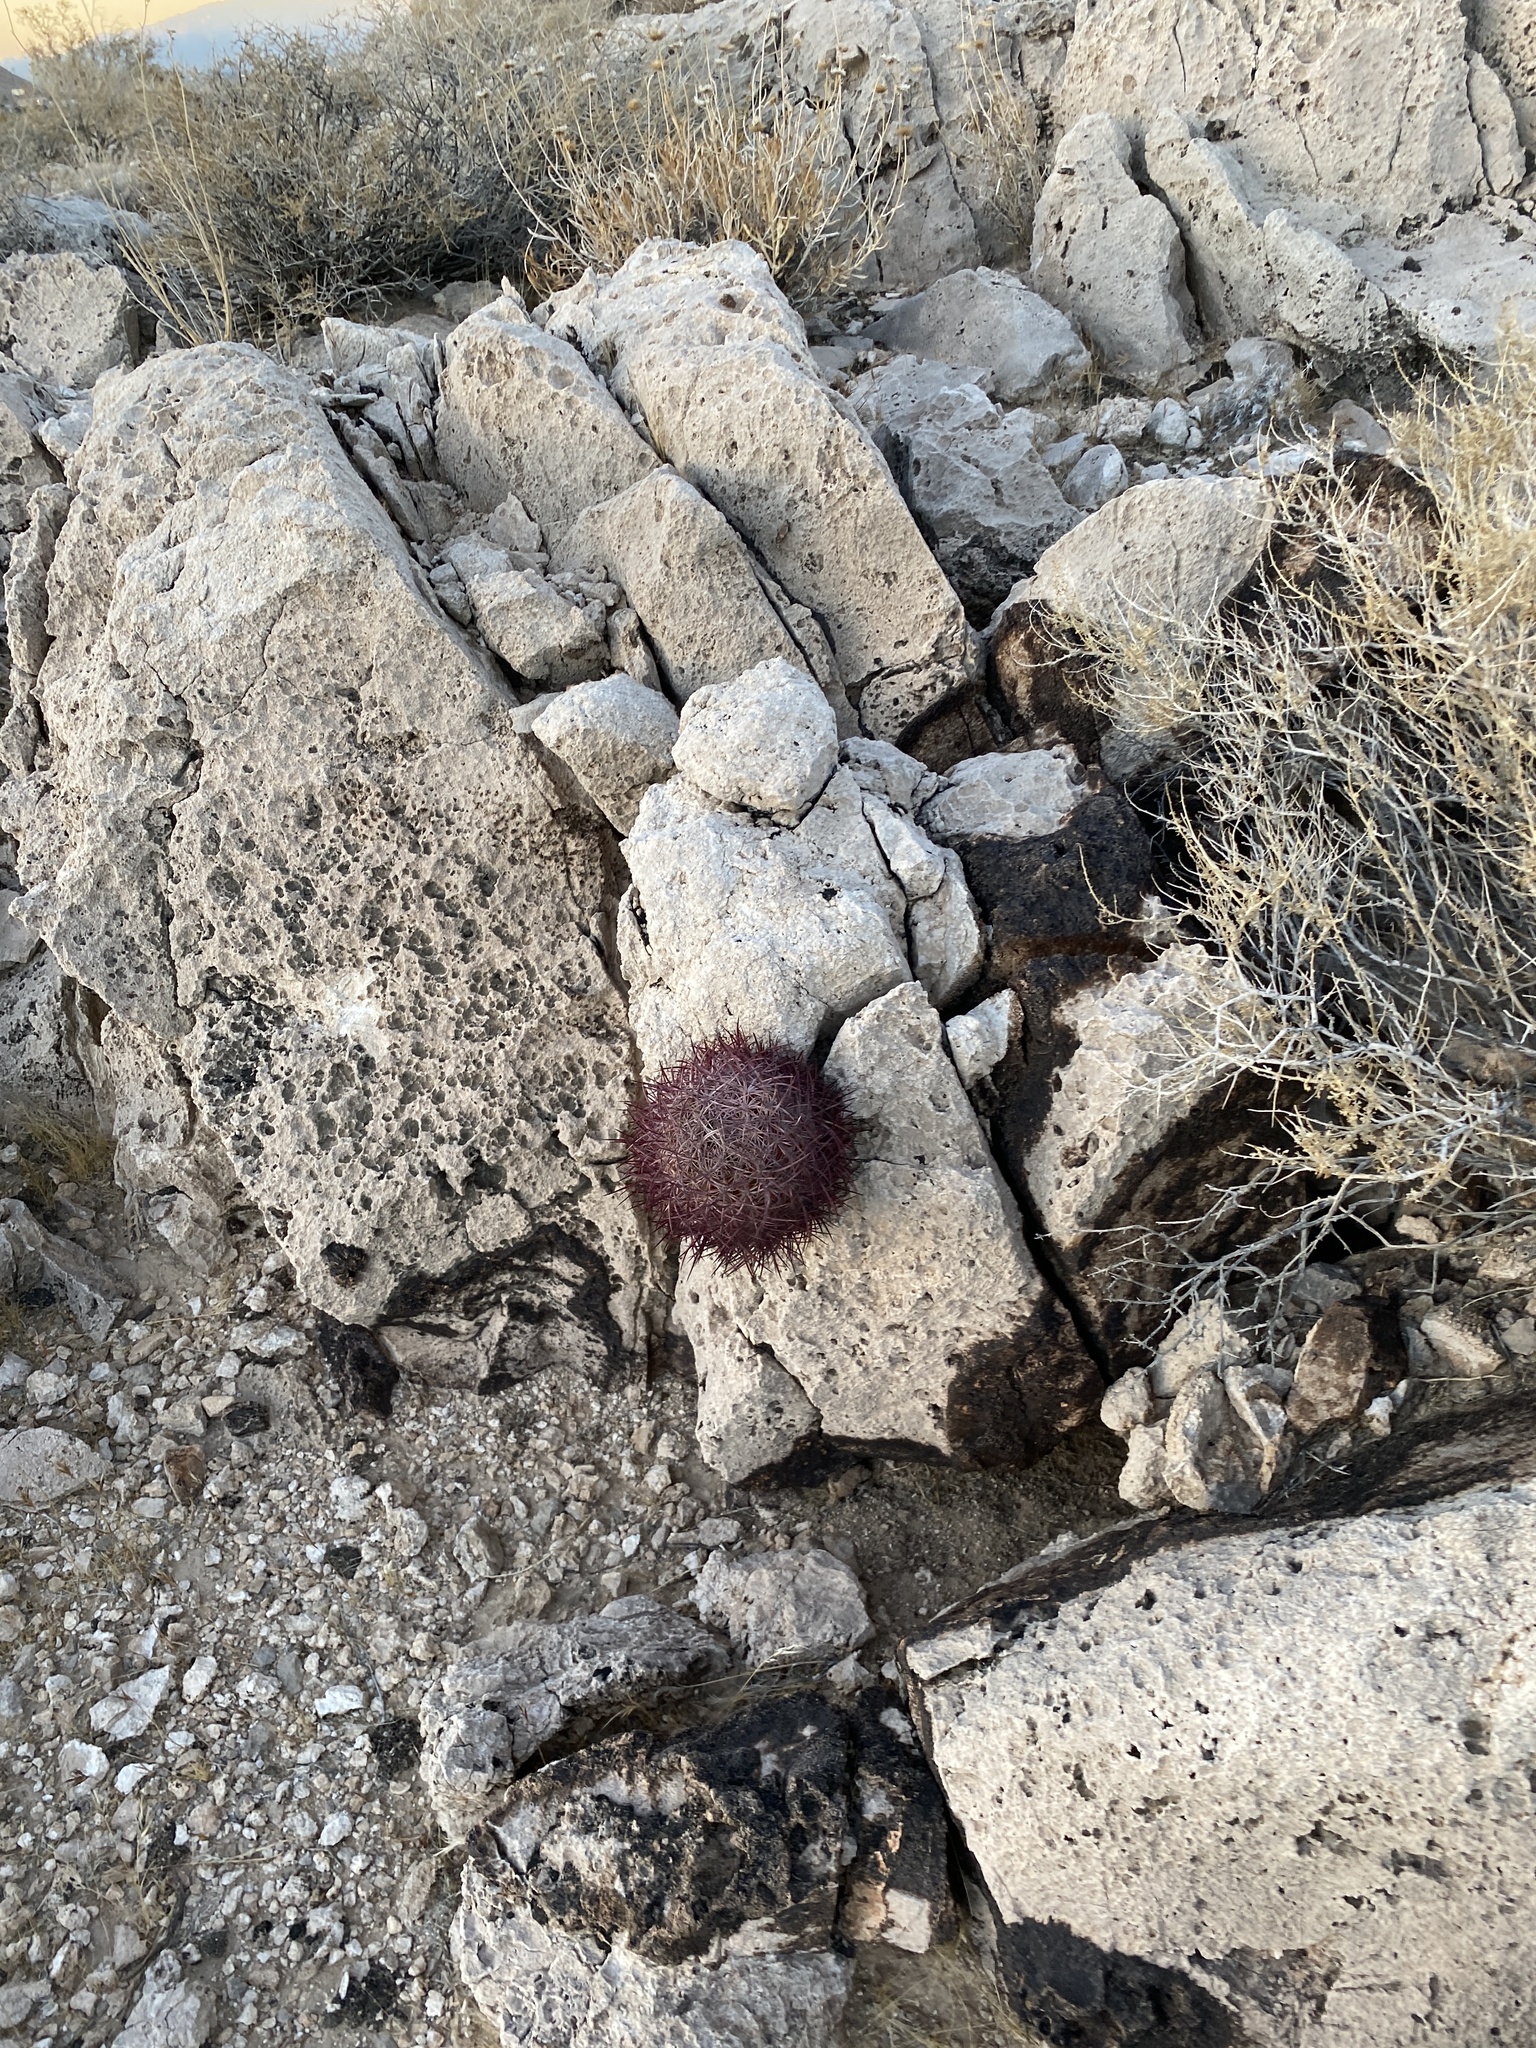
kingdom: Plantae
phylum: Tracheophyta
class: Magnoliopsida
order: Caryophyllales
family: Cactaceae
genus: Sclerocactus
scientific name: Sclerocactus johnsonii
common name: Eight-spine fishhook cactus
